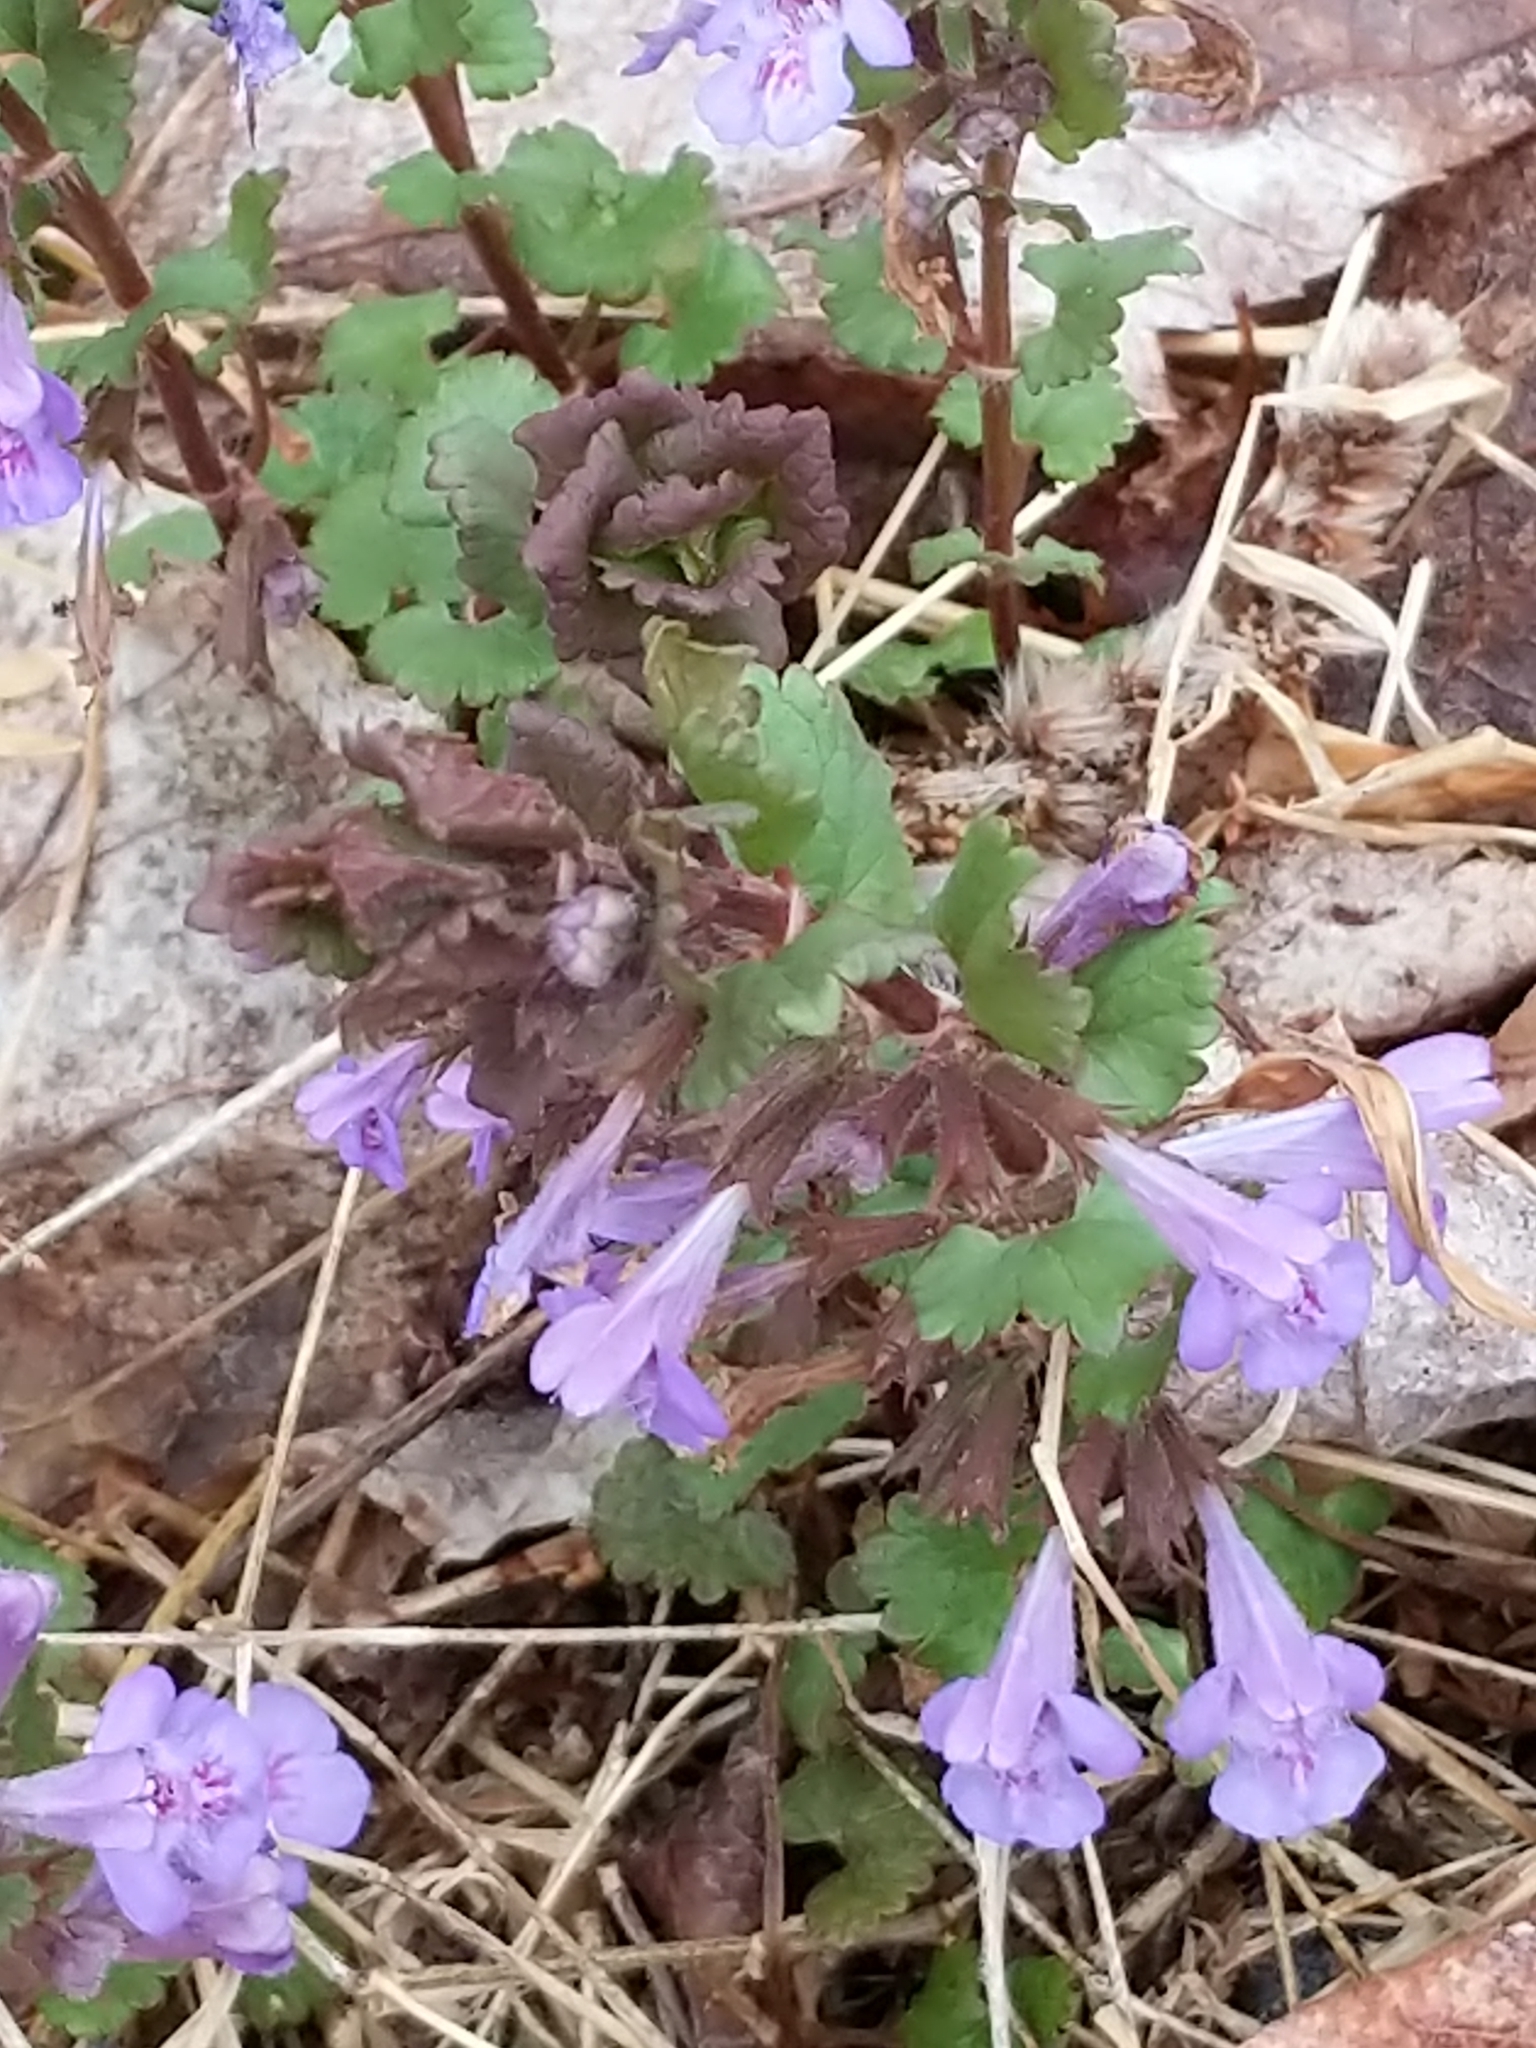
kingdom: Plantae
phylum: Tracheophyta
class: Magnoliopsida
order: Lamiales
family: Lamiaceae
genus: Glechoma
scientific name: Glechoma hederacea
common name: Ground ivy
